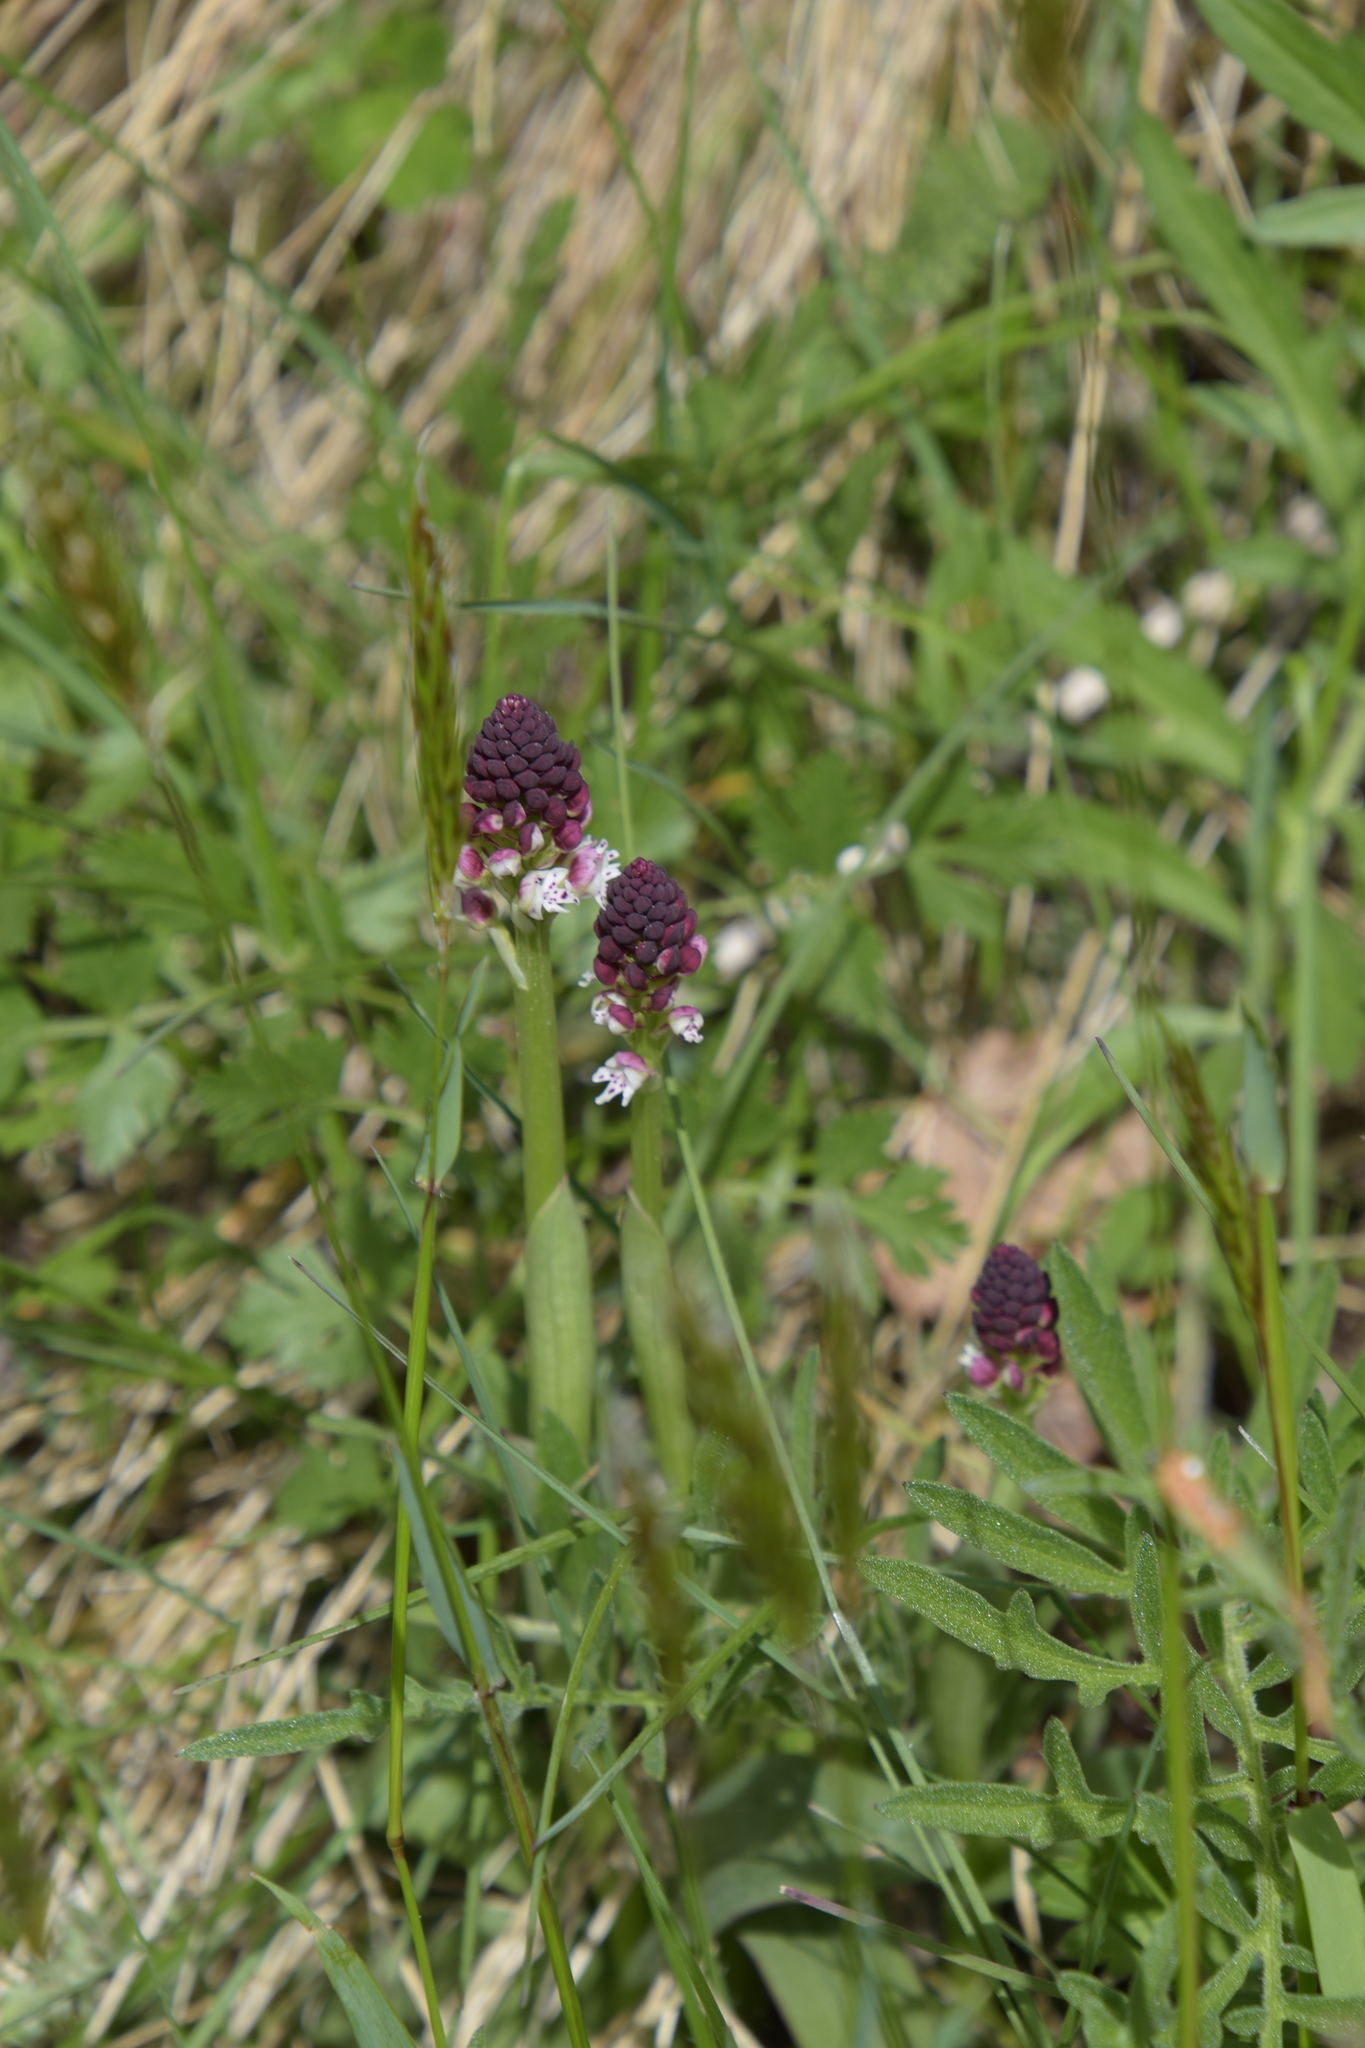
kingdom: Plantae
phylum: Tracheophyta
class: Liliopsida
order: Asparagales
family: Orchidaceae
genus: Neotinea
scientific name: Neotinea ustulata
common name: Burnt orchid
